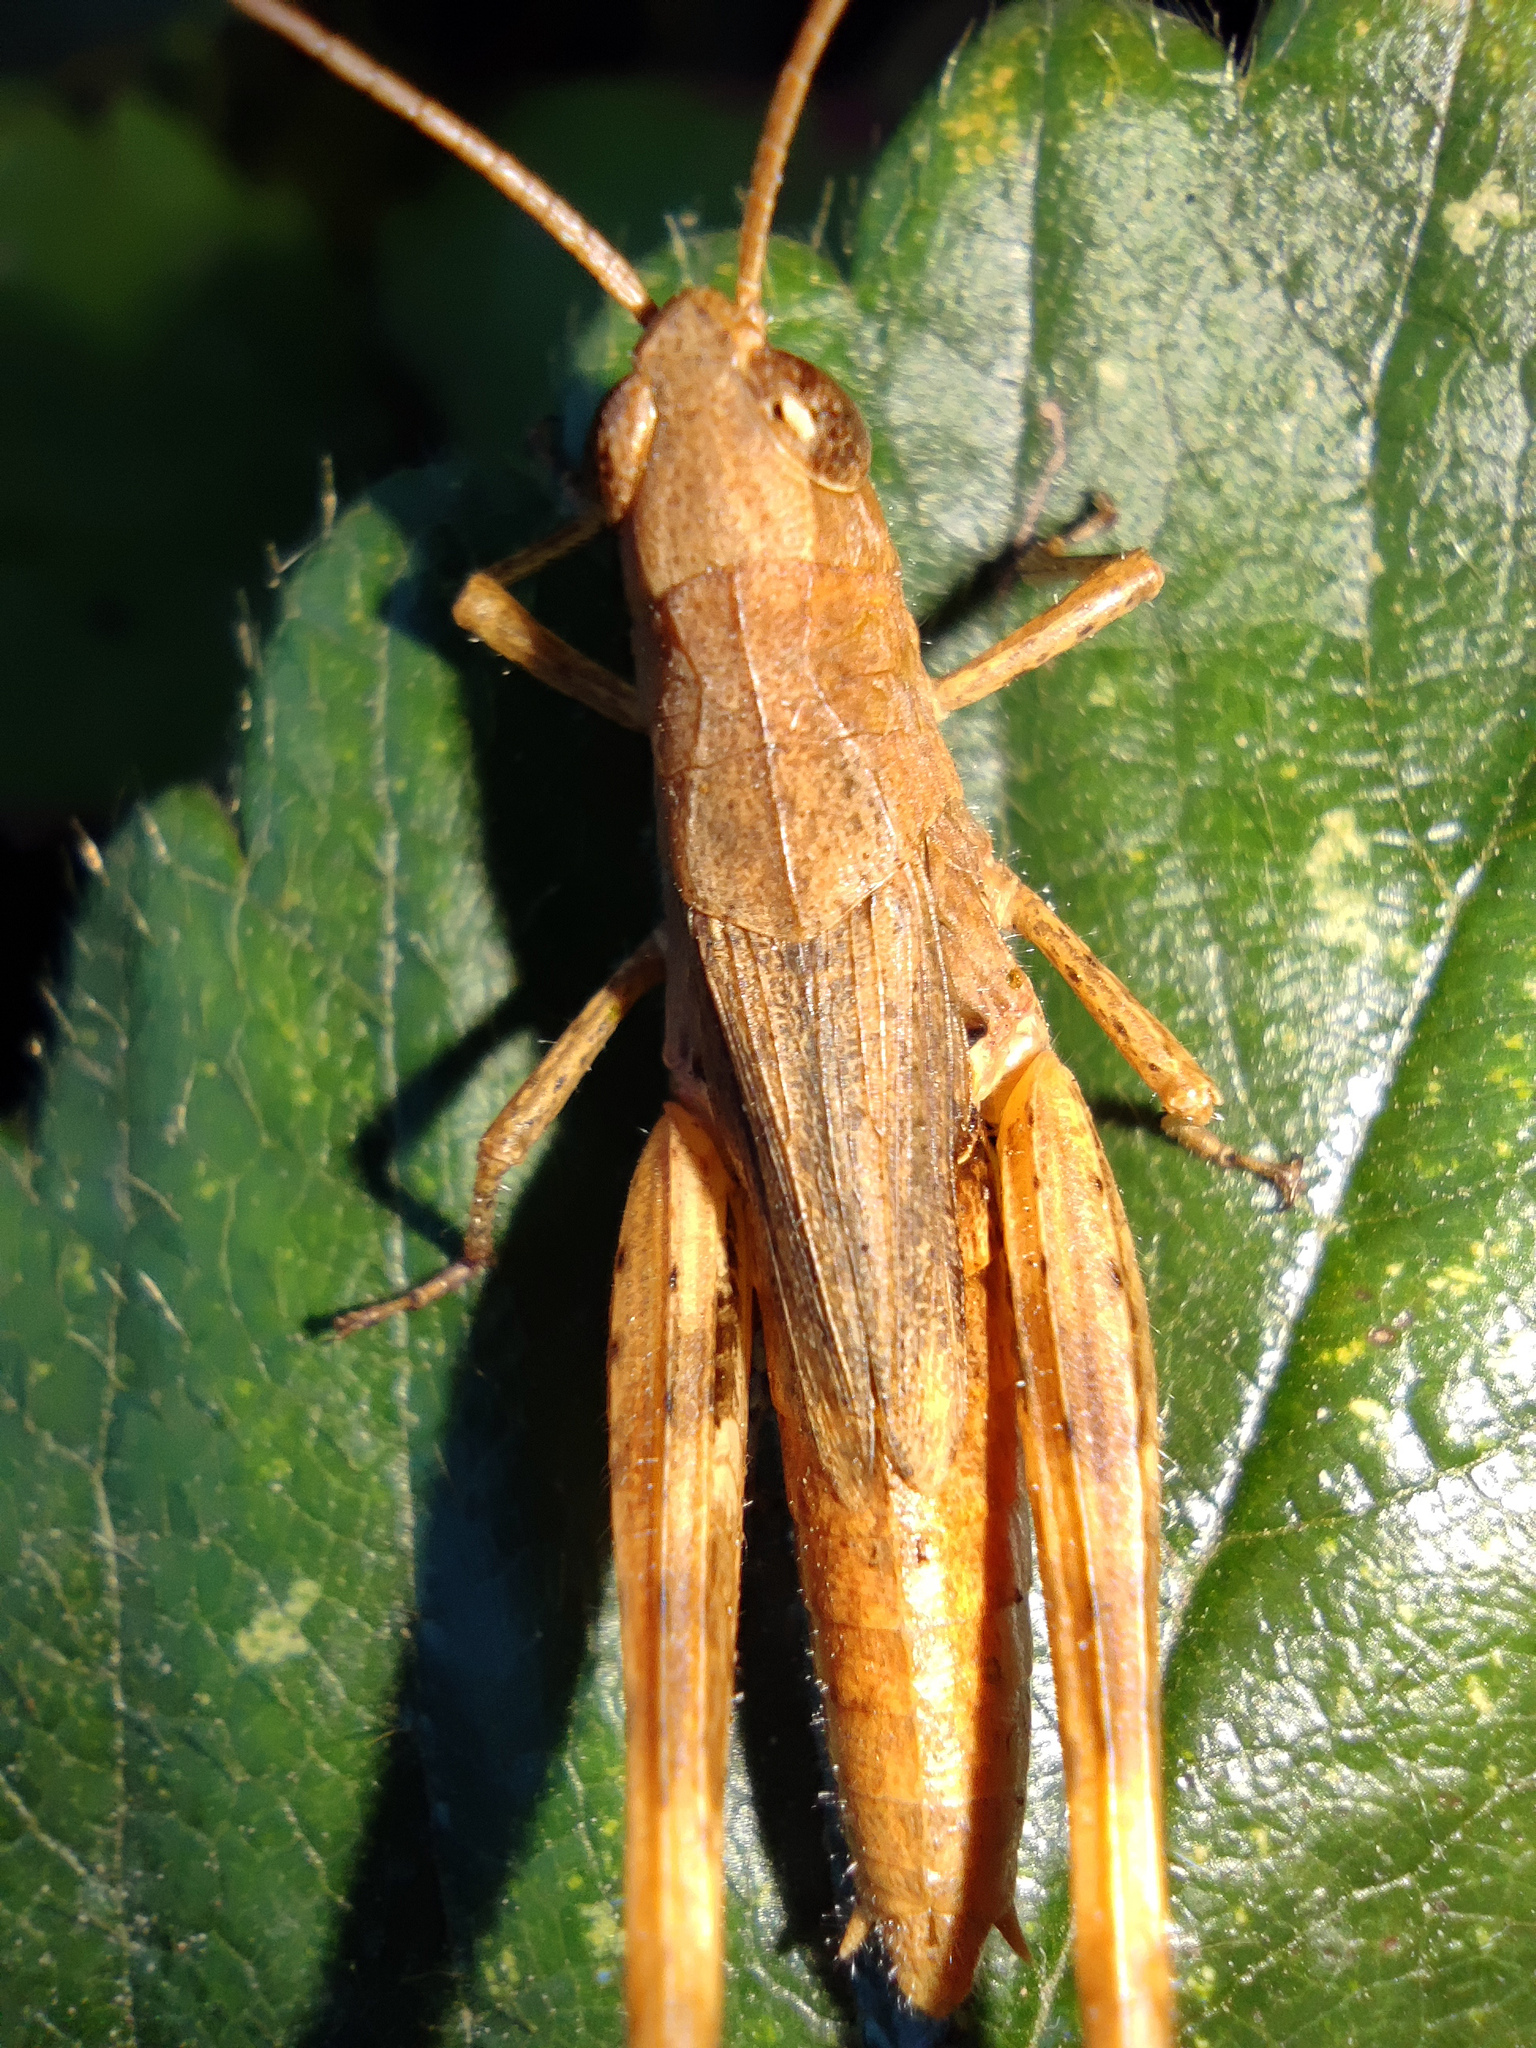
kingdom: Animalia
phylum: Arthropoda
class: Insecta
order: Orthoptera
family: Acrididae
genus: Chorthippus
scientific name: Chorthippus macrocerus
